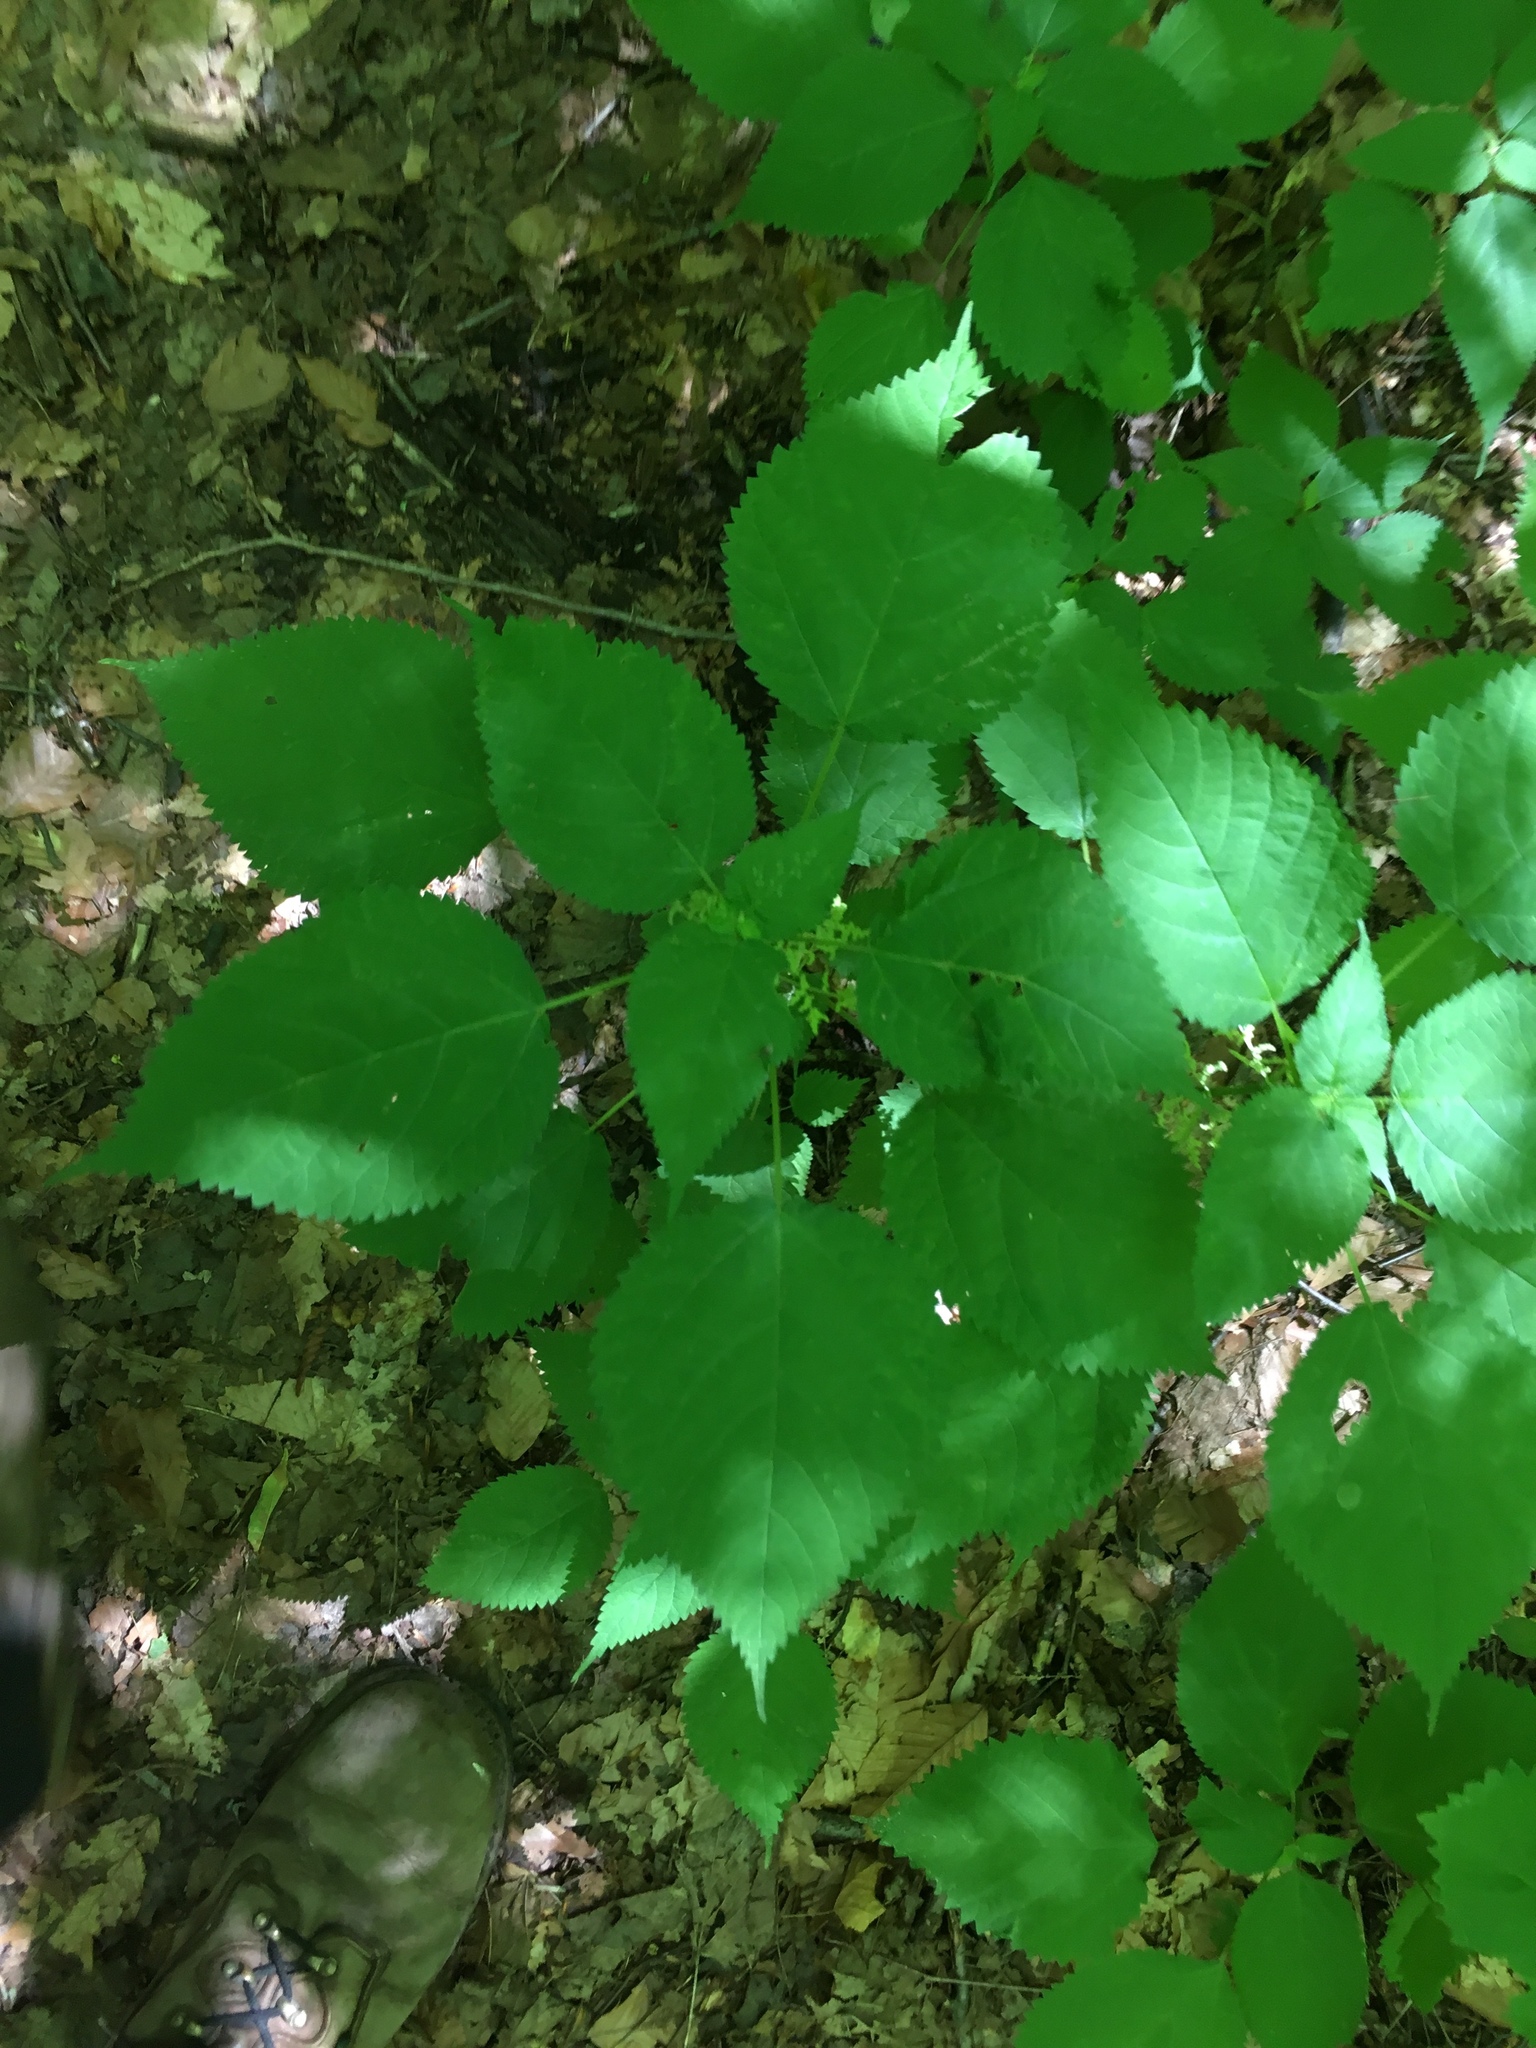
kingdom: Plantae
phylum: Tracheophyta
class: Magnoliopsida
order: Rosales
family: Urticaceae
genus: Laportea
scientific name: Laportea canadensis
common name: Canada nettle
